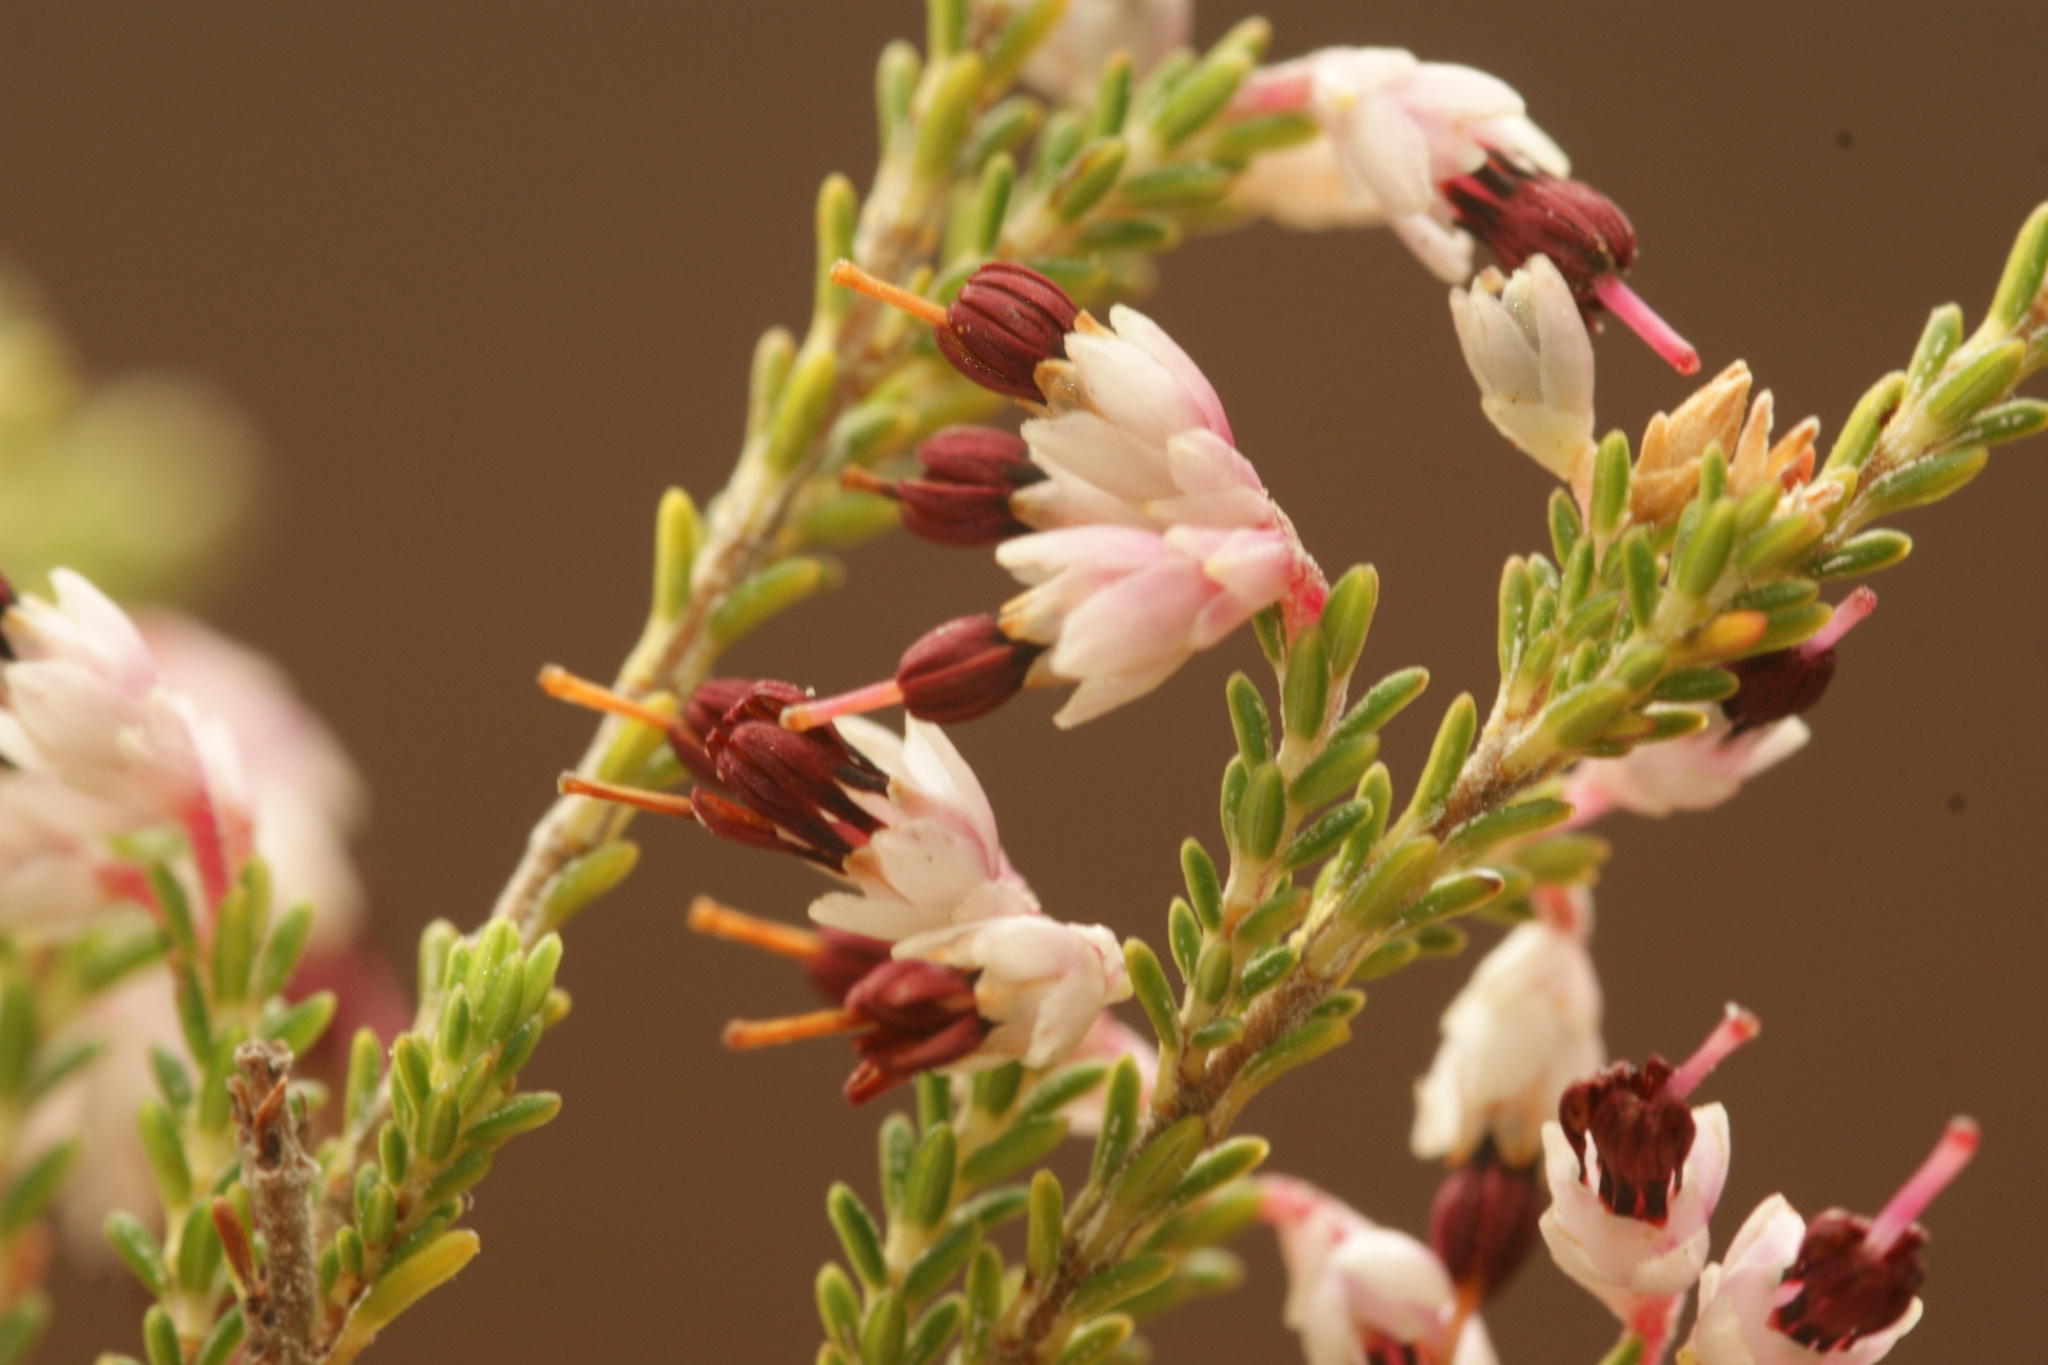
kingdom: Plantae
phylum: Tracheophyta
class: Magnoliopsida
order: Ericales
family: Ericaceae
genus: Erica
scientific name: Erica imbricata
